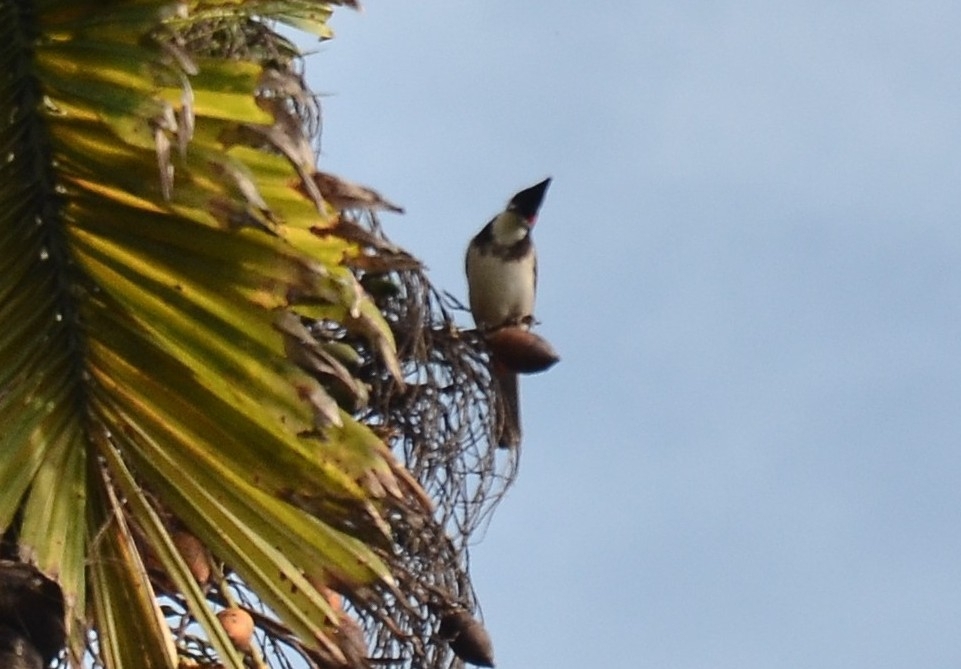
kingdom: Animalia
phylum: Chordata
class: Aves
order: Passeriformes
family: Pycnonotidae
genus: Pycnonotus
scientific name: Pycnonotus jocosus
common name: Red-whiskered bulbul
